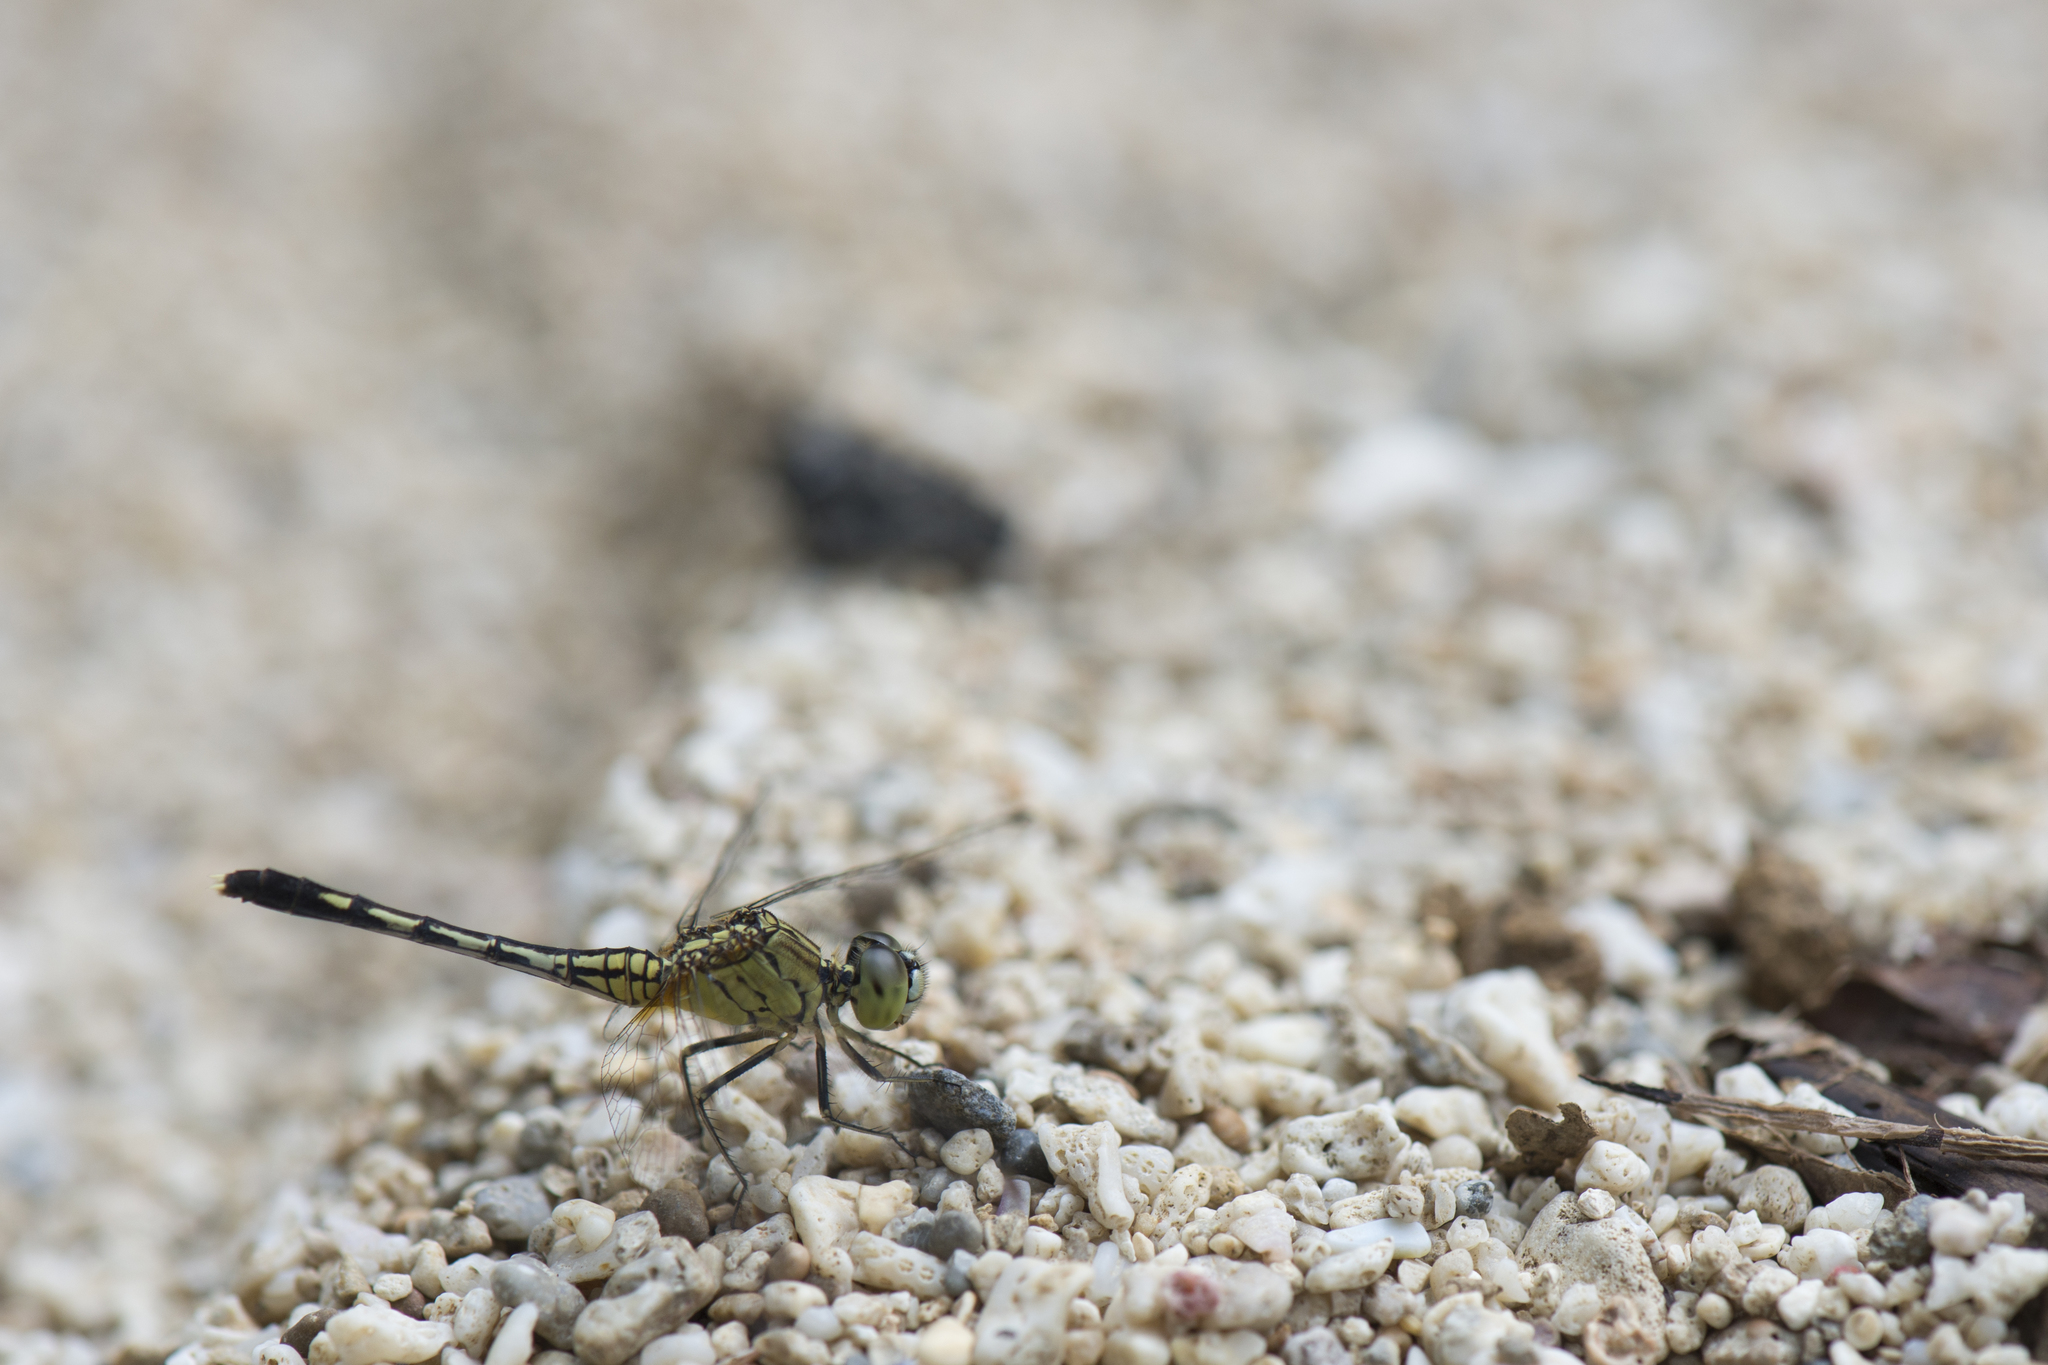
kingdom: Animalia
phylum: Arthropoda
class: Insecta
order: Odonata
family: Libellulidae
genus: Diplacodes
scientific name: Diplacodes trivialis
